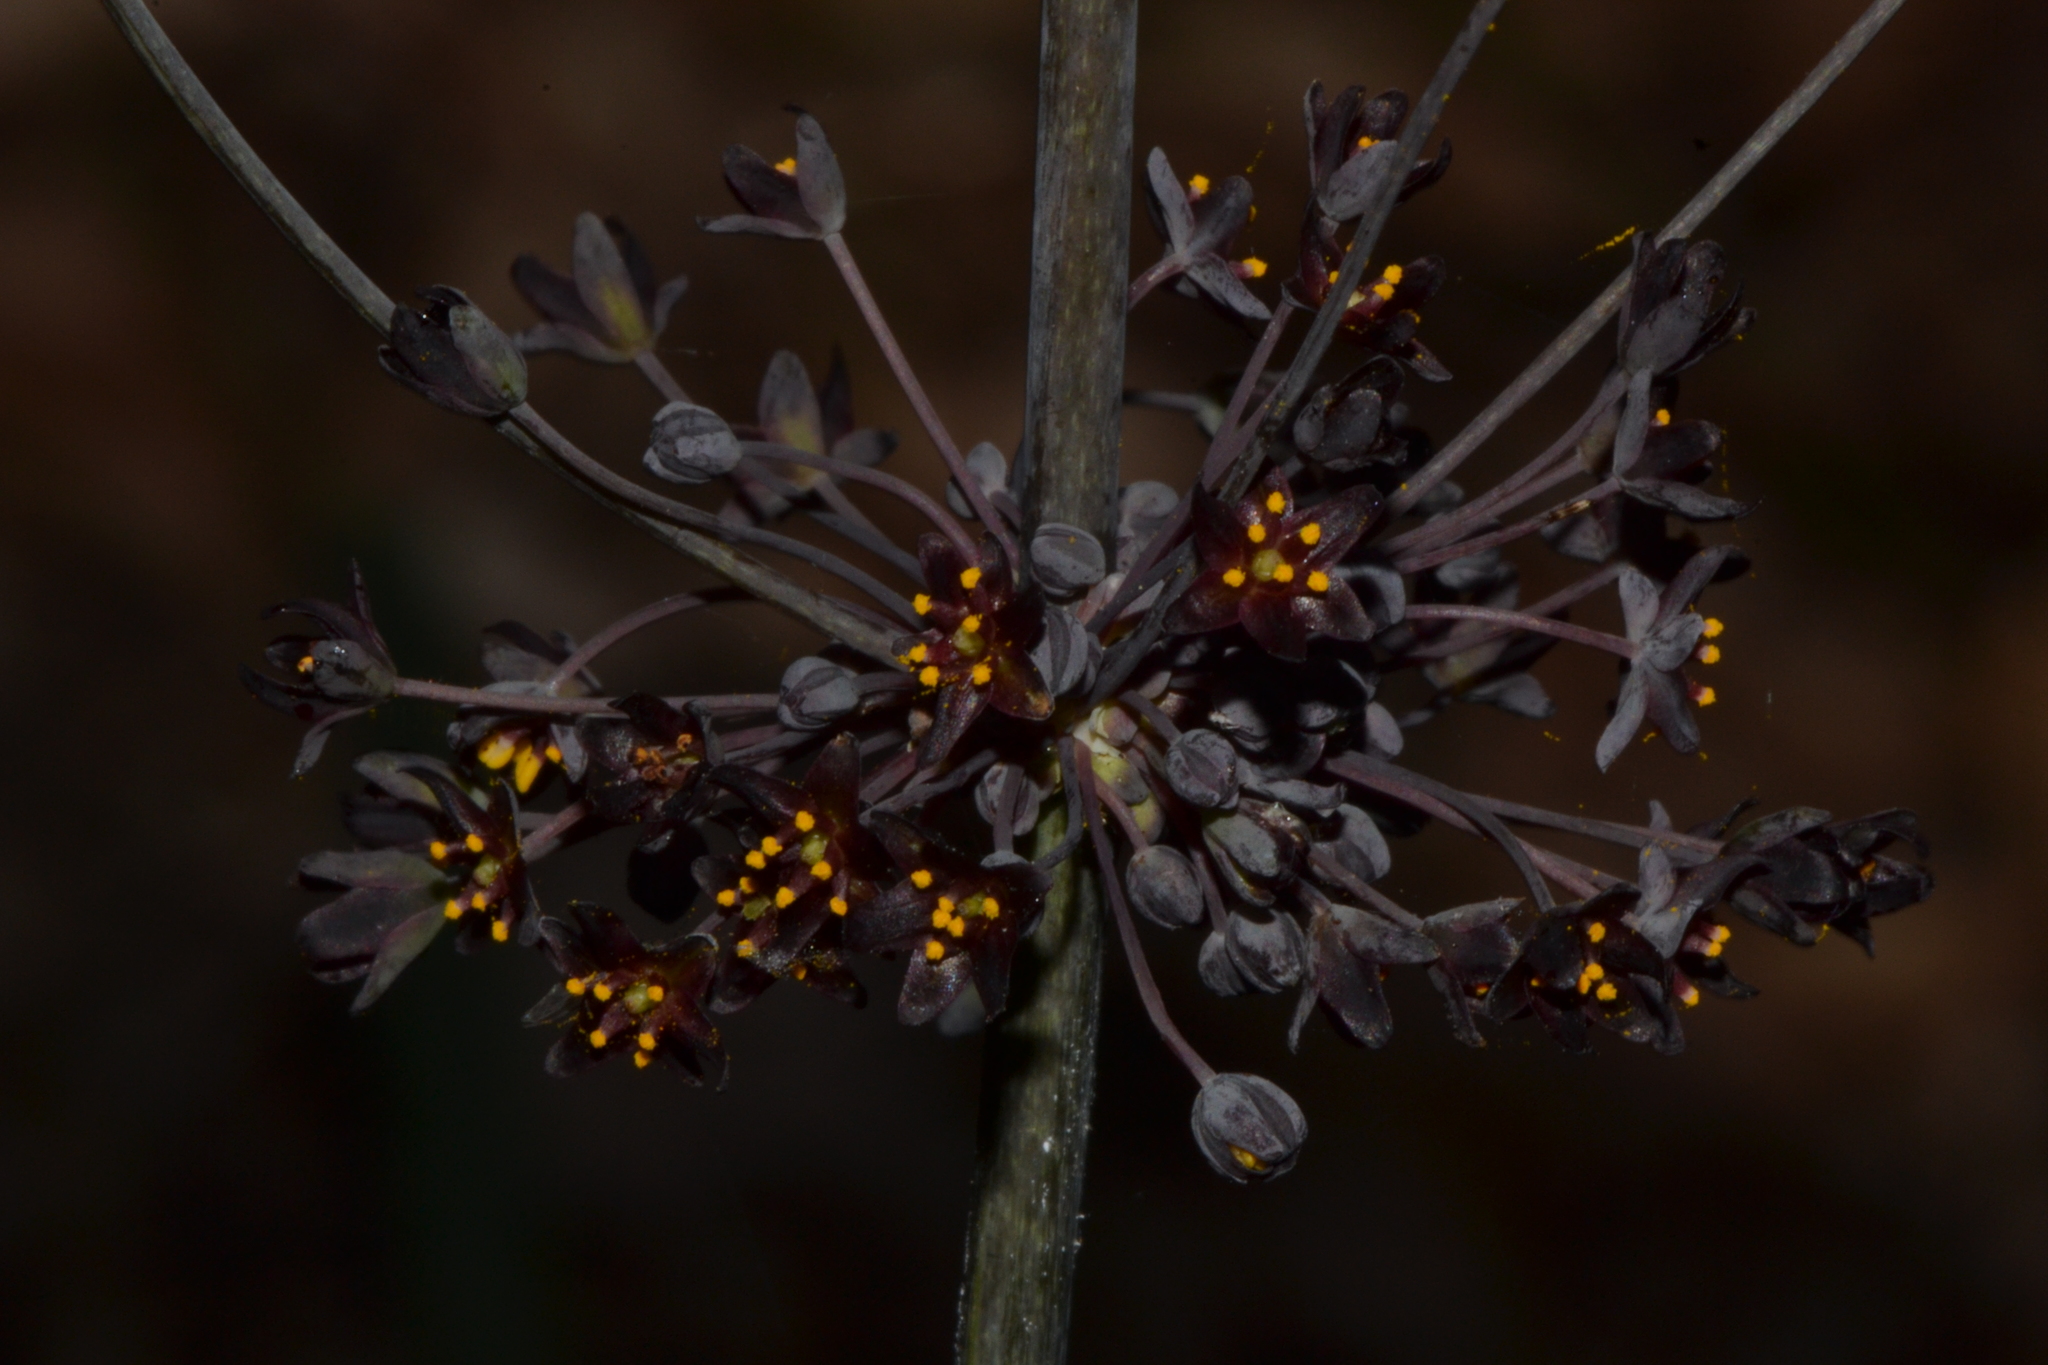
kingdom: Plantae
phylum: Tracheophyta
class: Liliopsida
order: Asparagales
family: Asparagaceae
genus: Lomandra
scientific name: Lomandra purpurea
